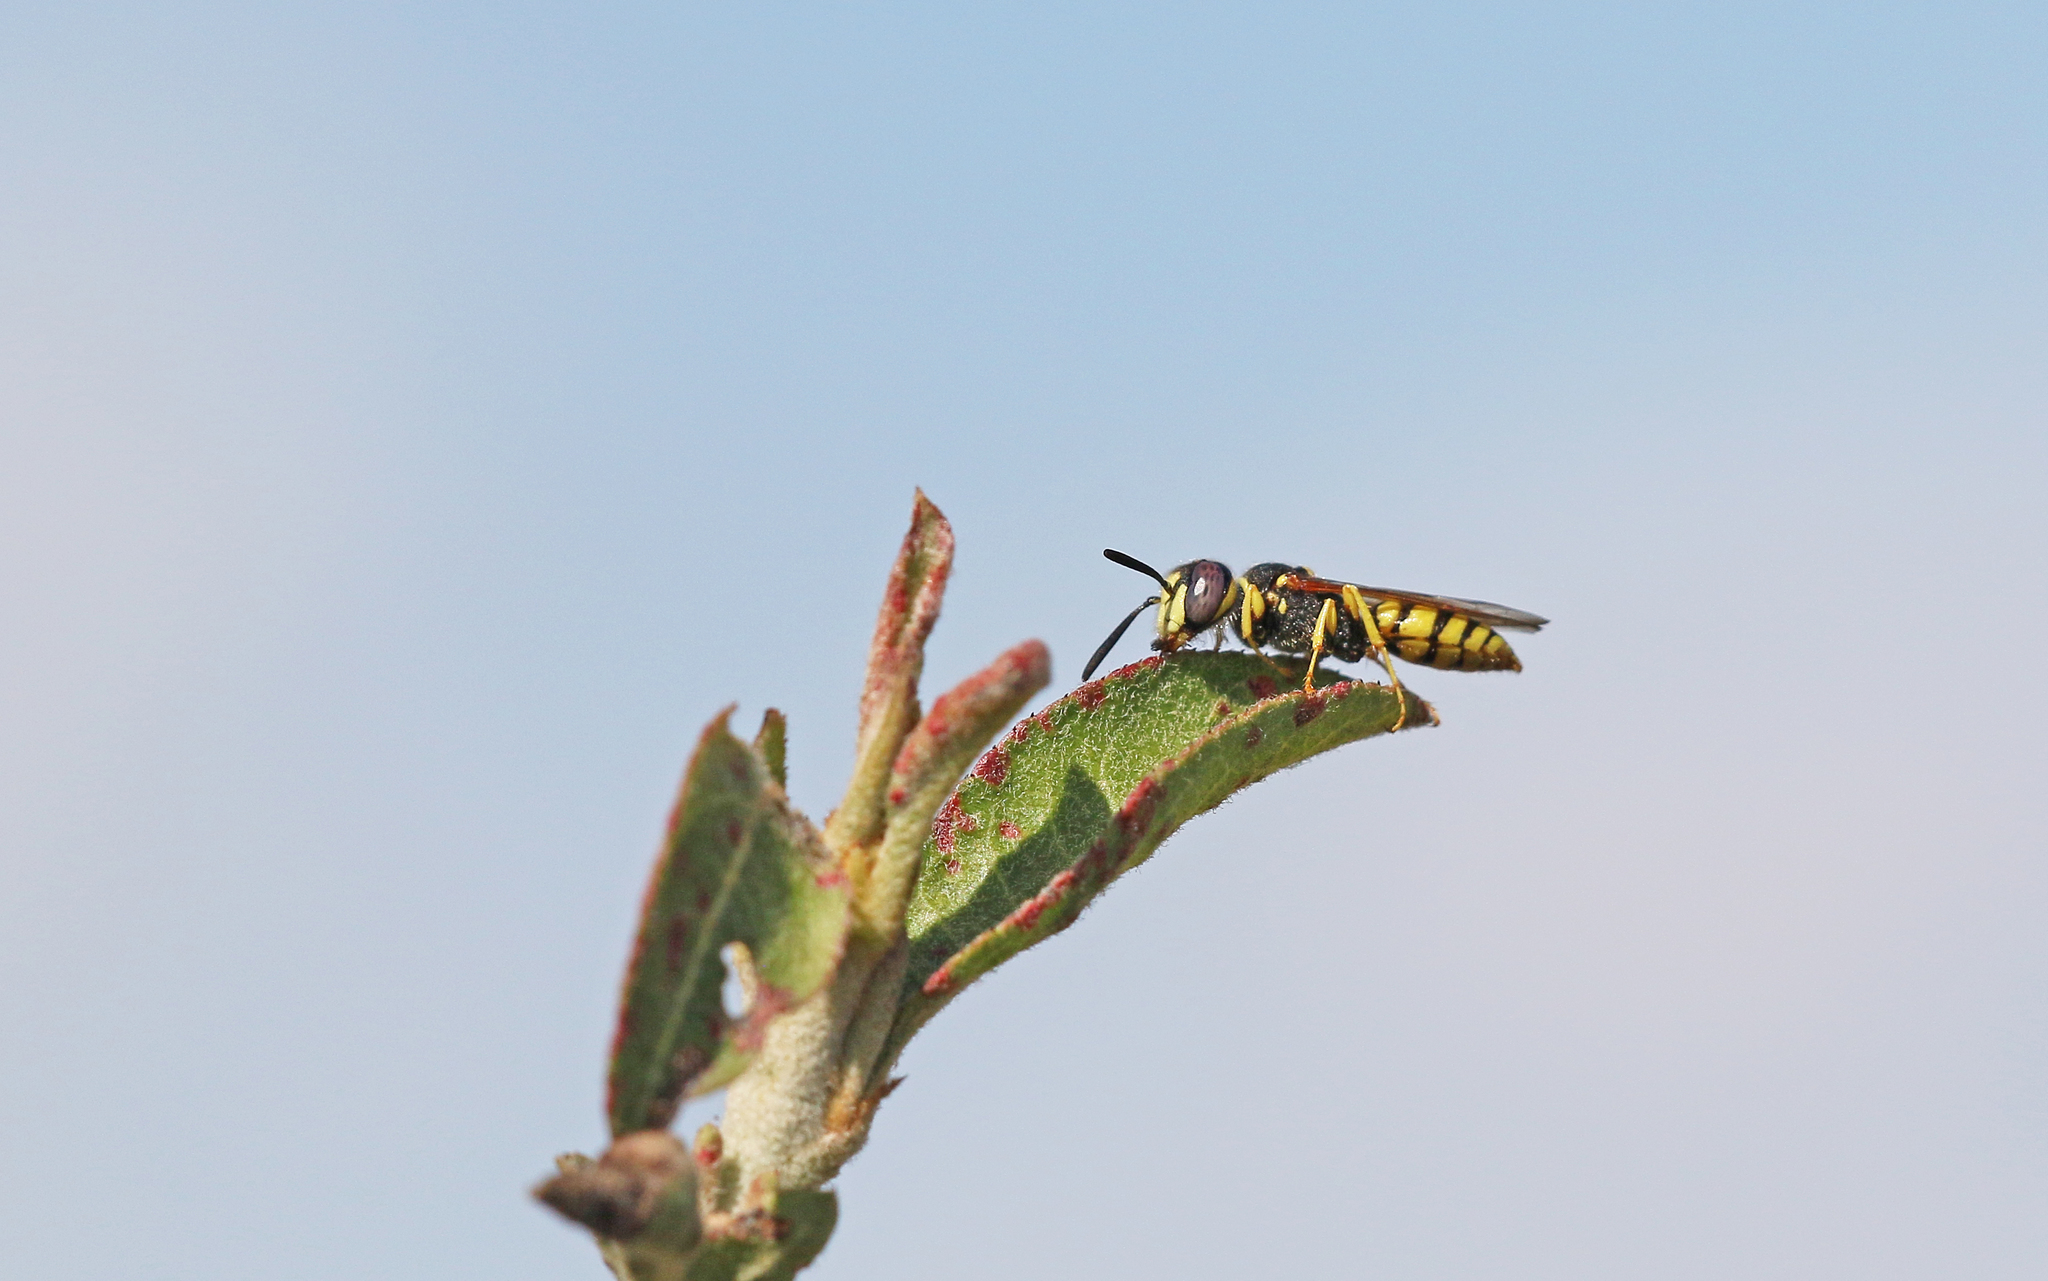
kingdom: Animalia
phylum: Arthropoda
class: Insecta
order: Hymenoptera
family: Crabronidae
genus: Philanthus
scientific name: Philanthus triangulum
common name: Bee wolf
